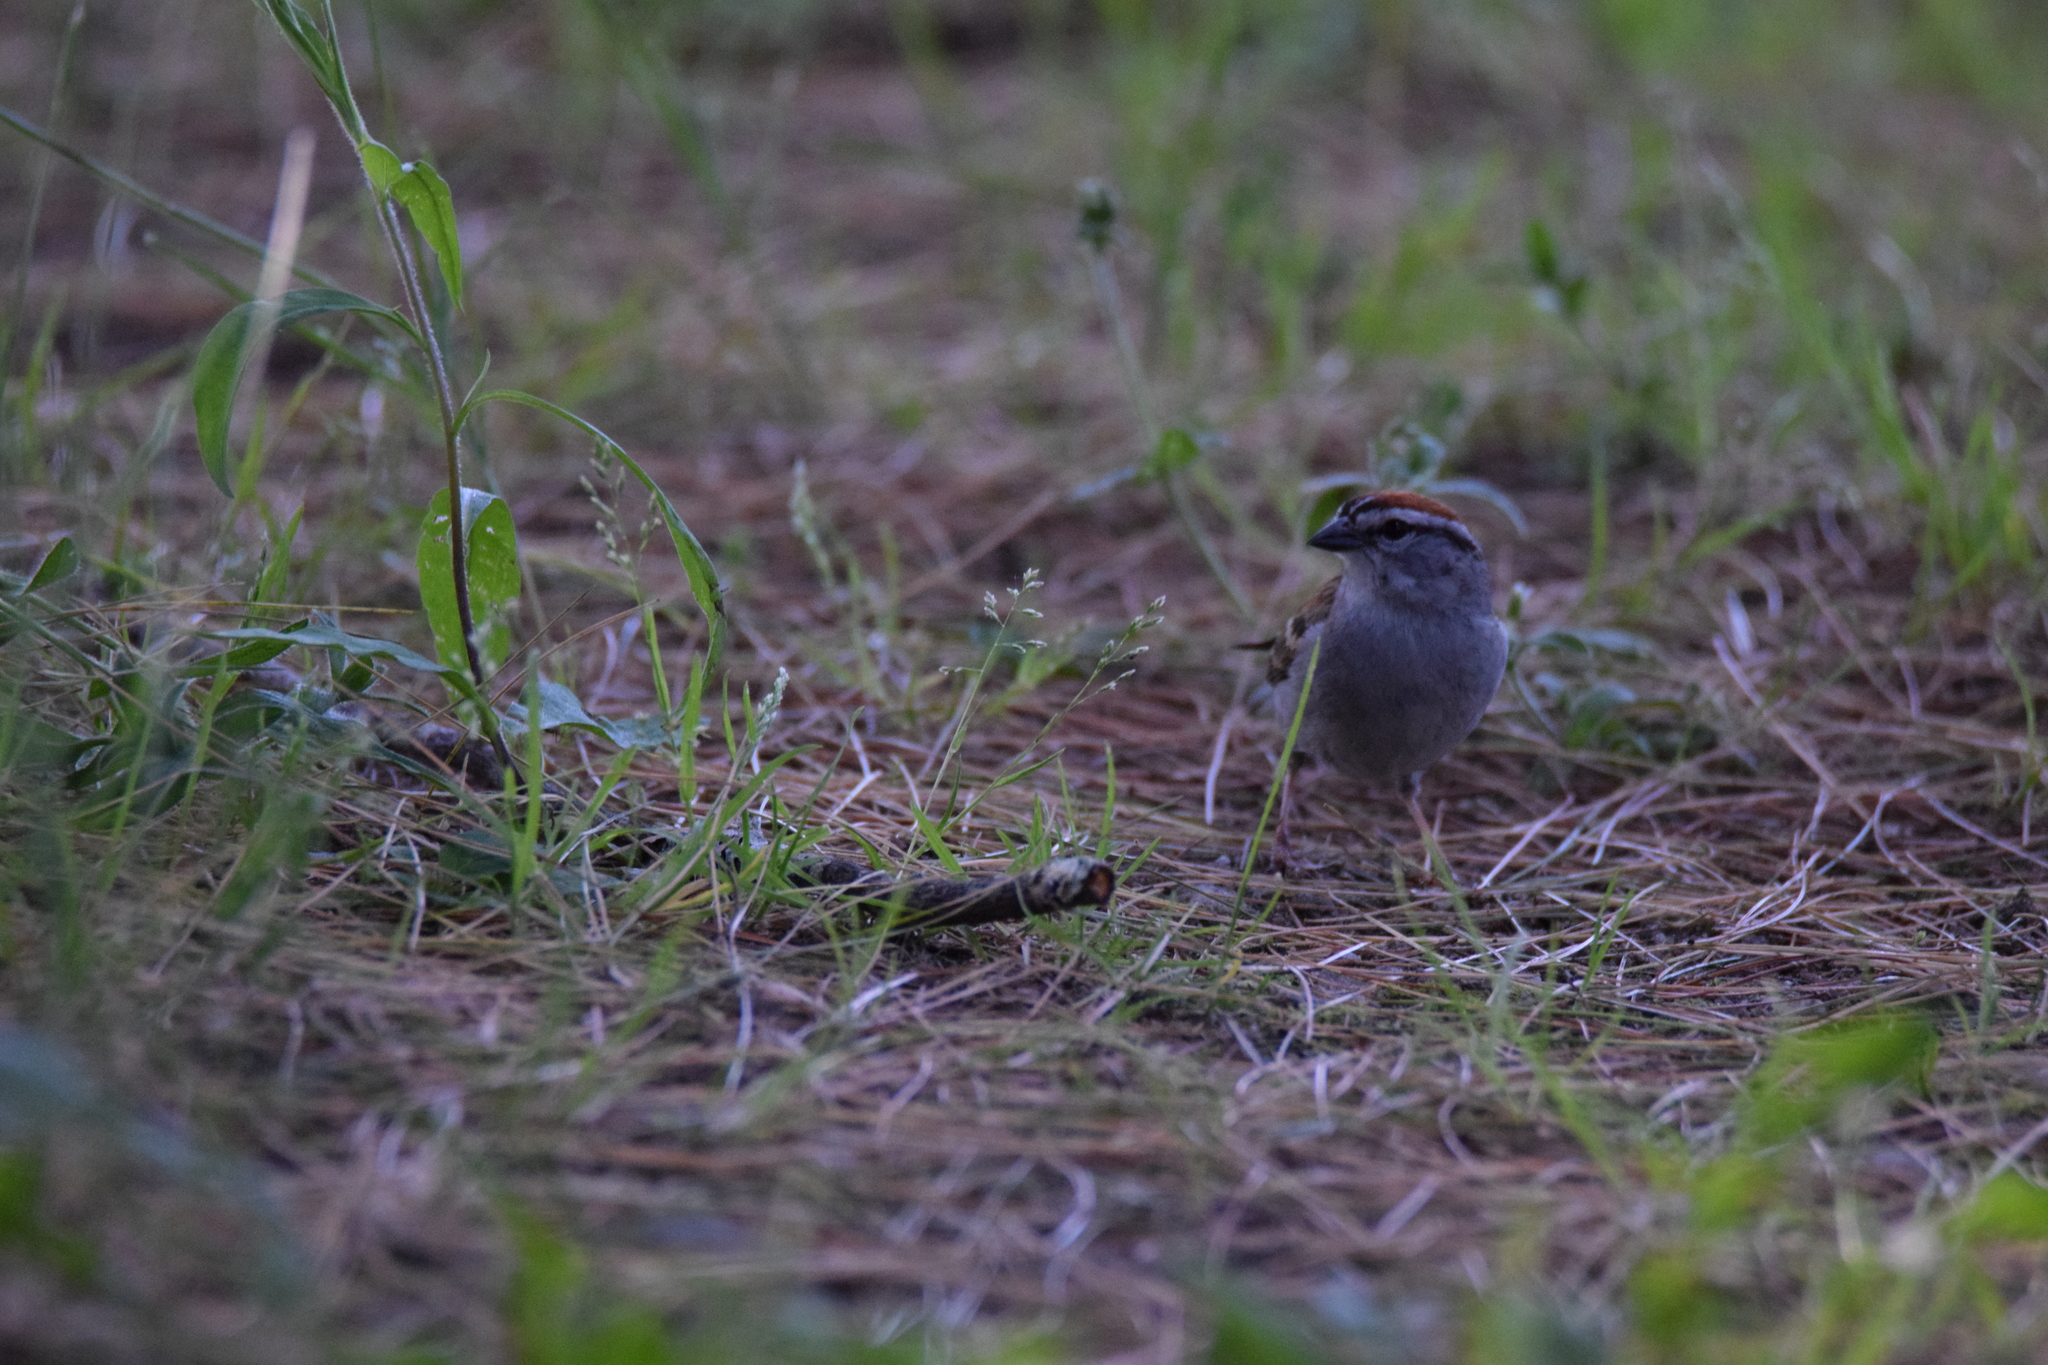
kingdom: Animalia
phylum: Chordata
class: Aves
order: Passeriformes
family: Passerellidae
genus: Spizella
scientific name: Spizella passerina
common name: Chipping sparrow
